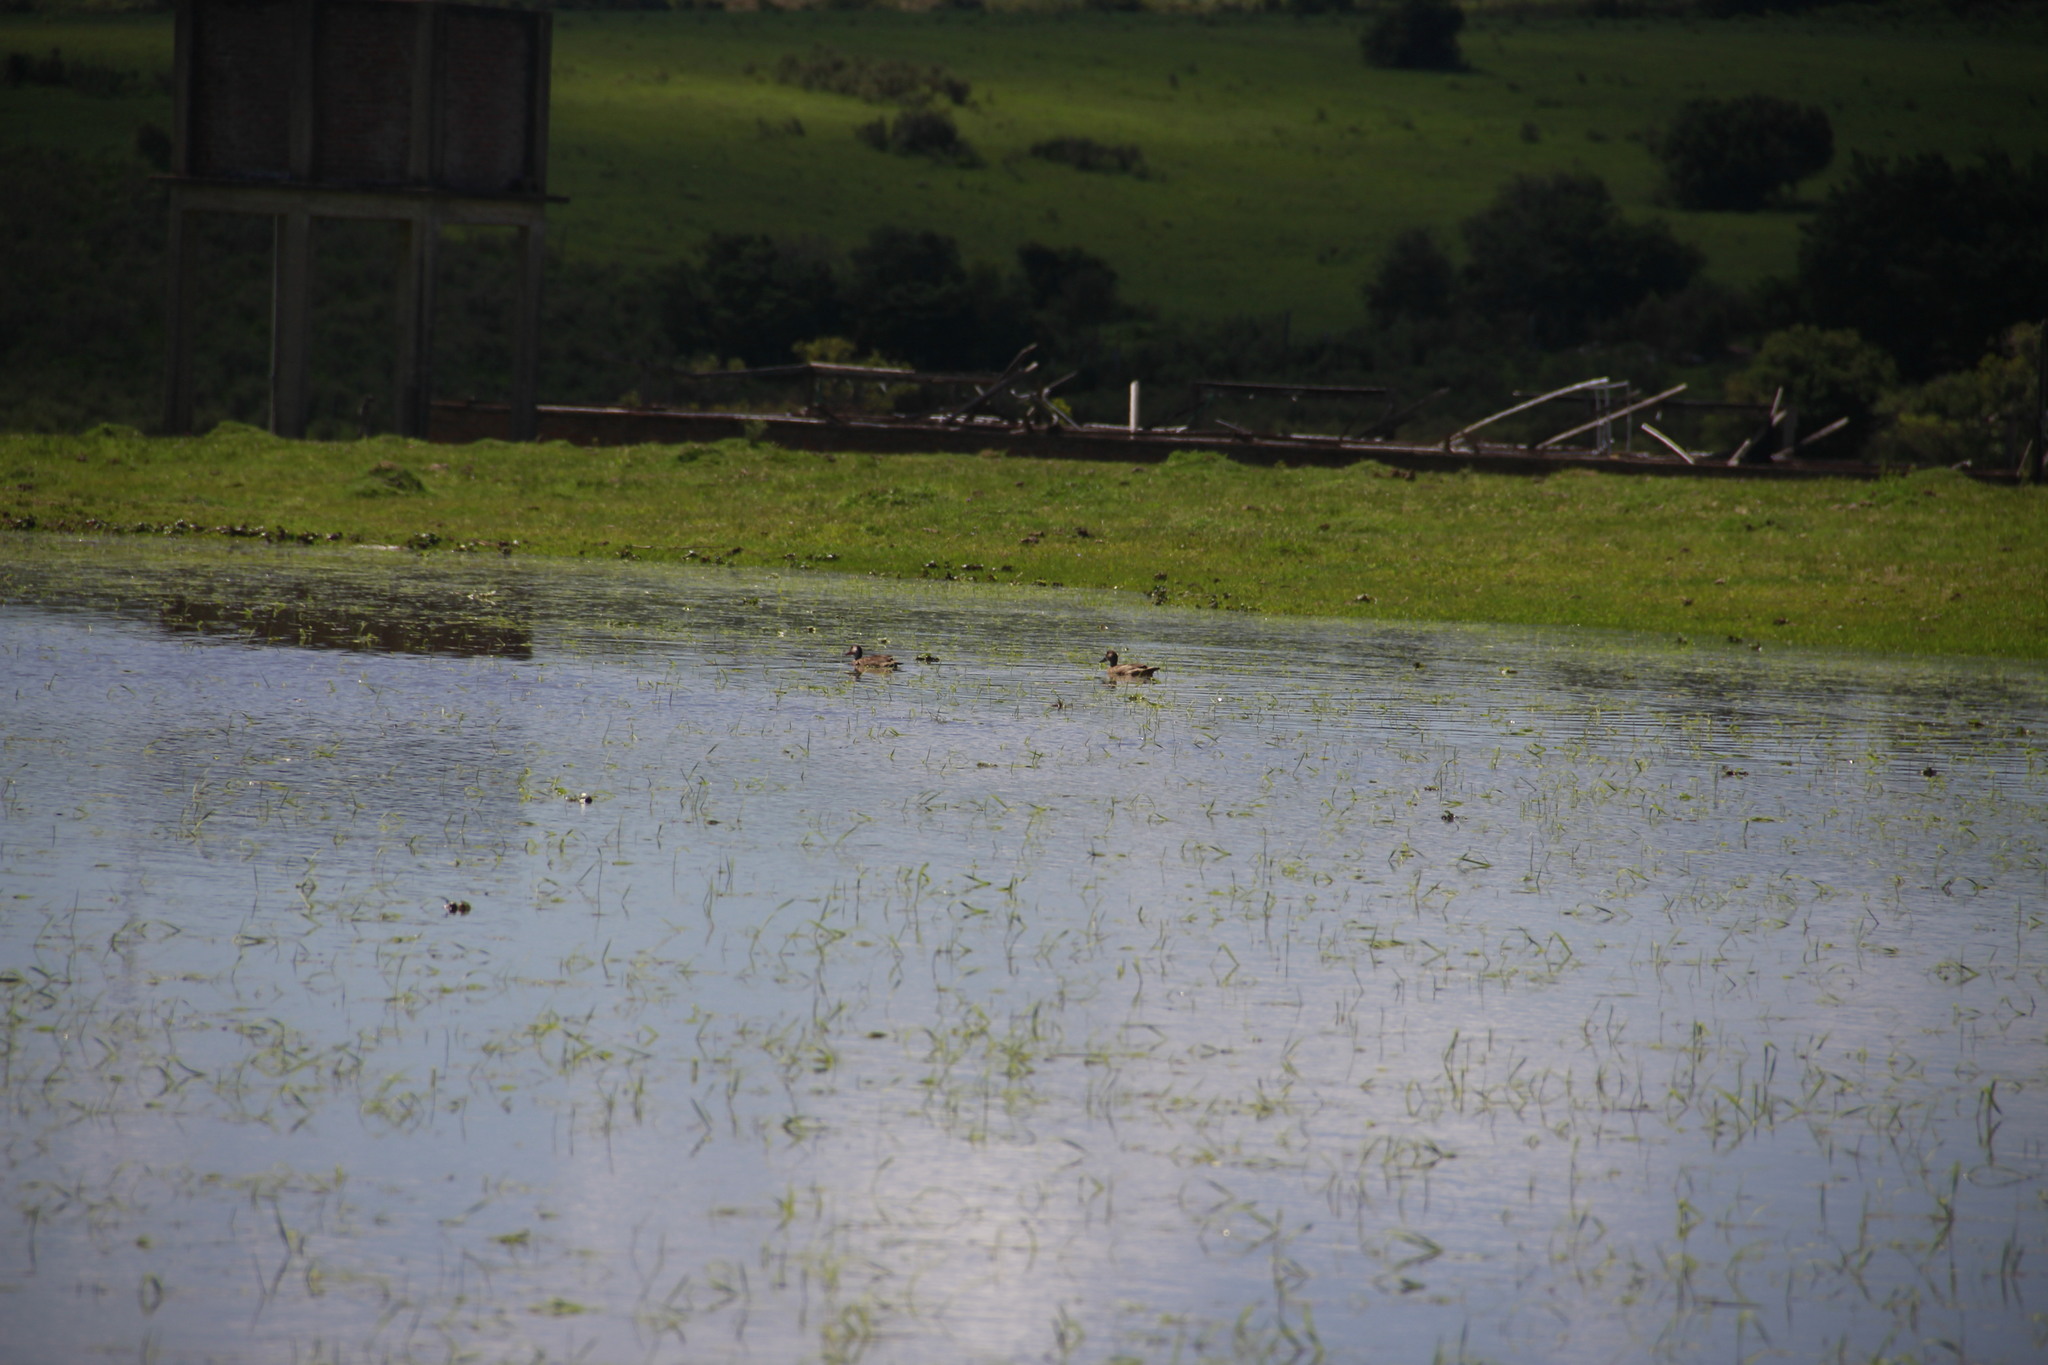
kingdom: Animalia
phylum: Chordata
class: Aves
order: Anseriformes
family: Anatidae
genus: Amazonetta
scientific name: Amazonetta brasiliensis
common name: Brazilian teal
